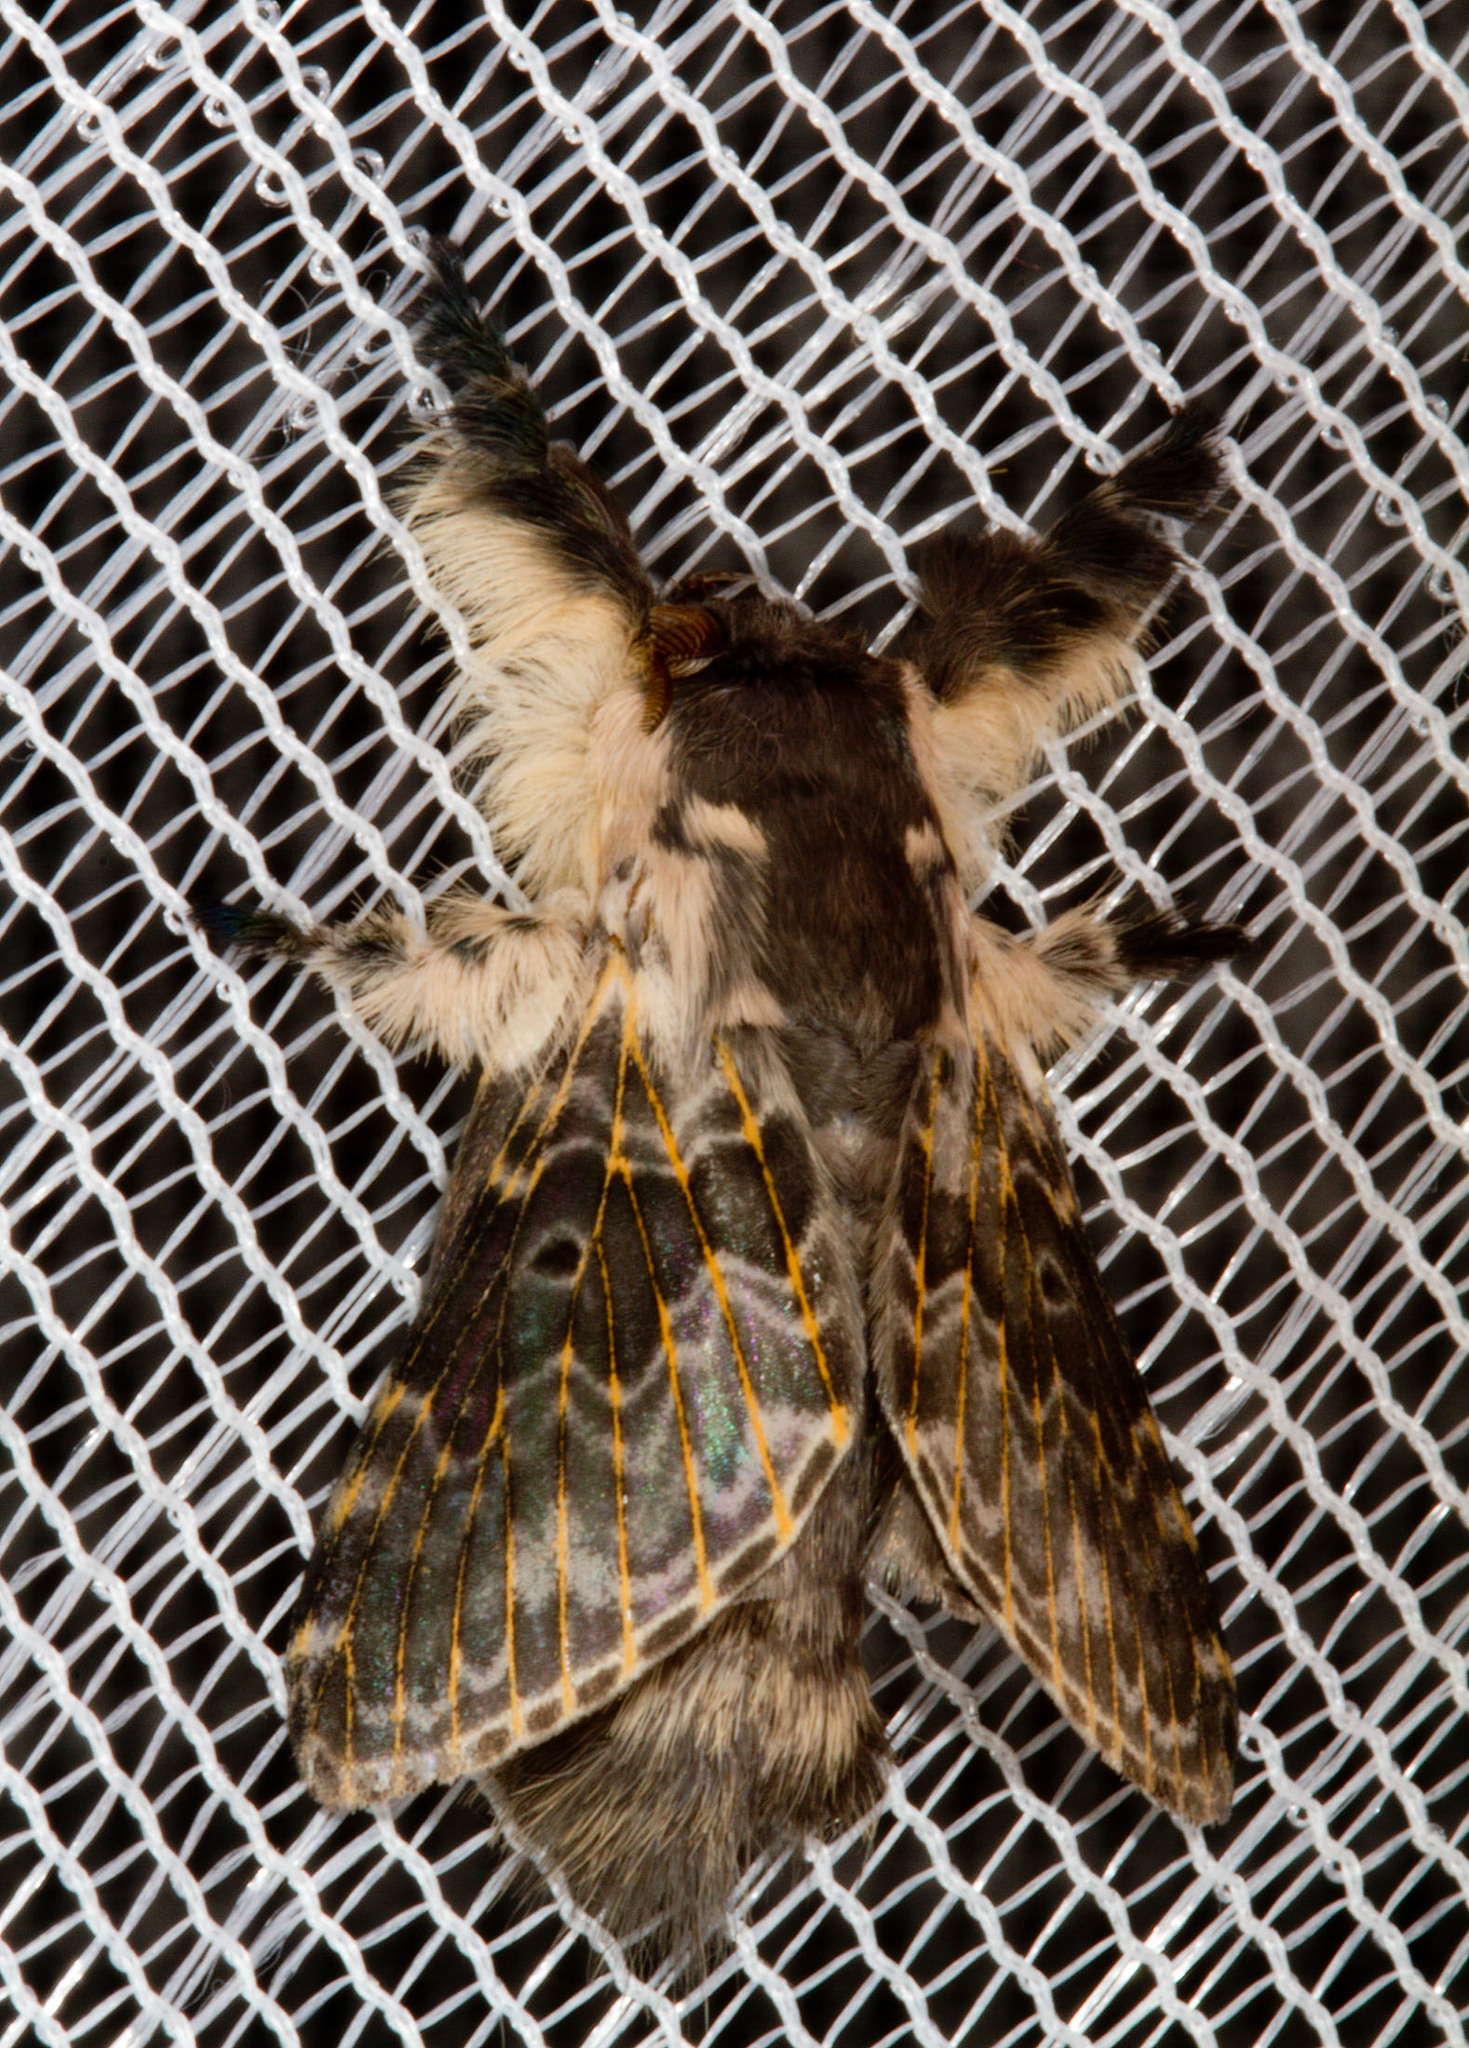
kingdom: Animalia
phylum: Arthropoda
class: Insecta
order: Lepidoptera
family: Lasiocampidae
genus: Labedera
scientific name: Labedera primitiva
